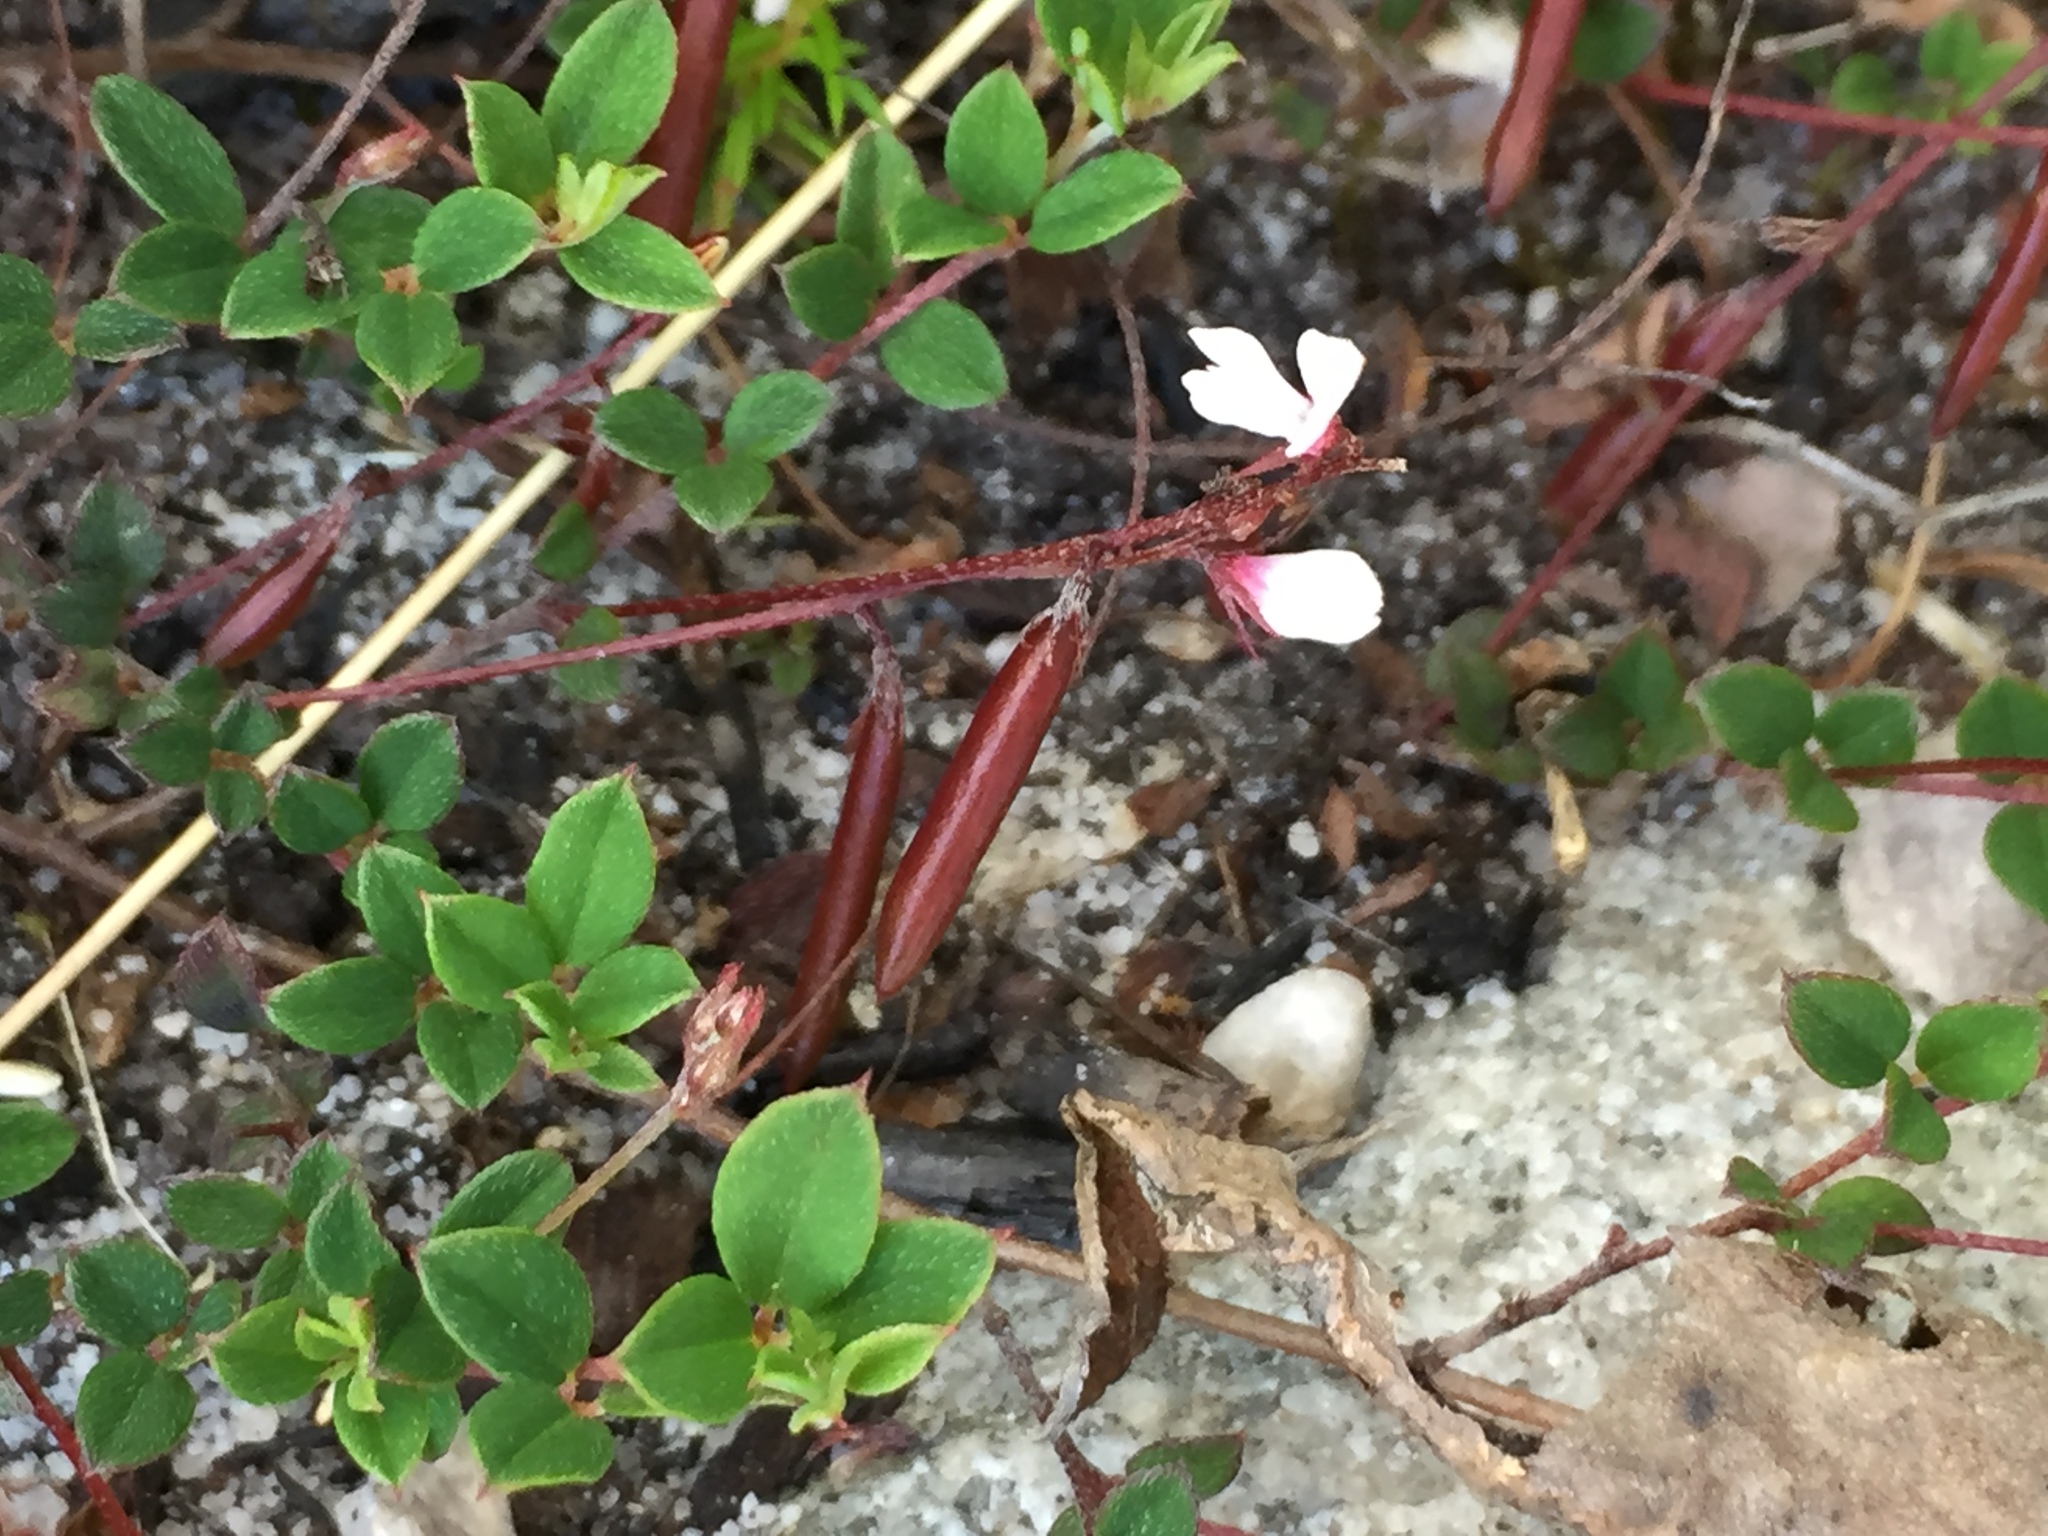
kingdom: Plantae
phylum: Tracheophyta
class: Magnoliopsida
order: Fabales
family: Fabaceae
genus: Indigofera
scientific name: Indigofera sarmentosa
